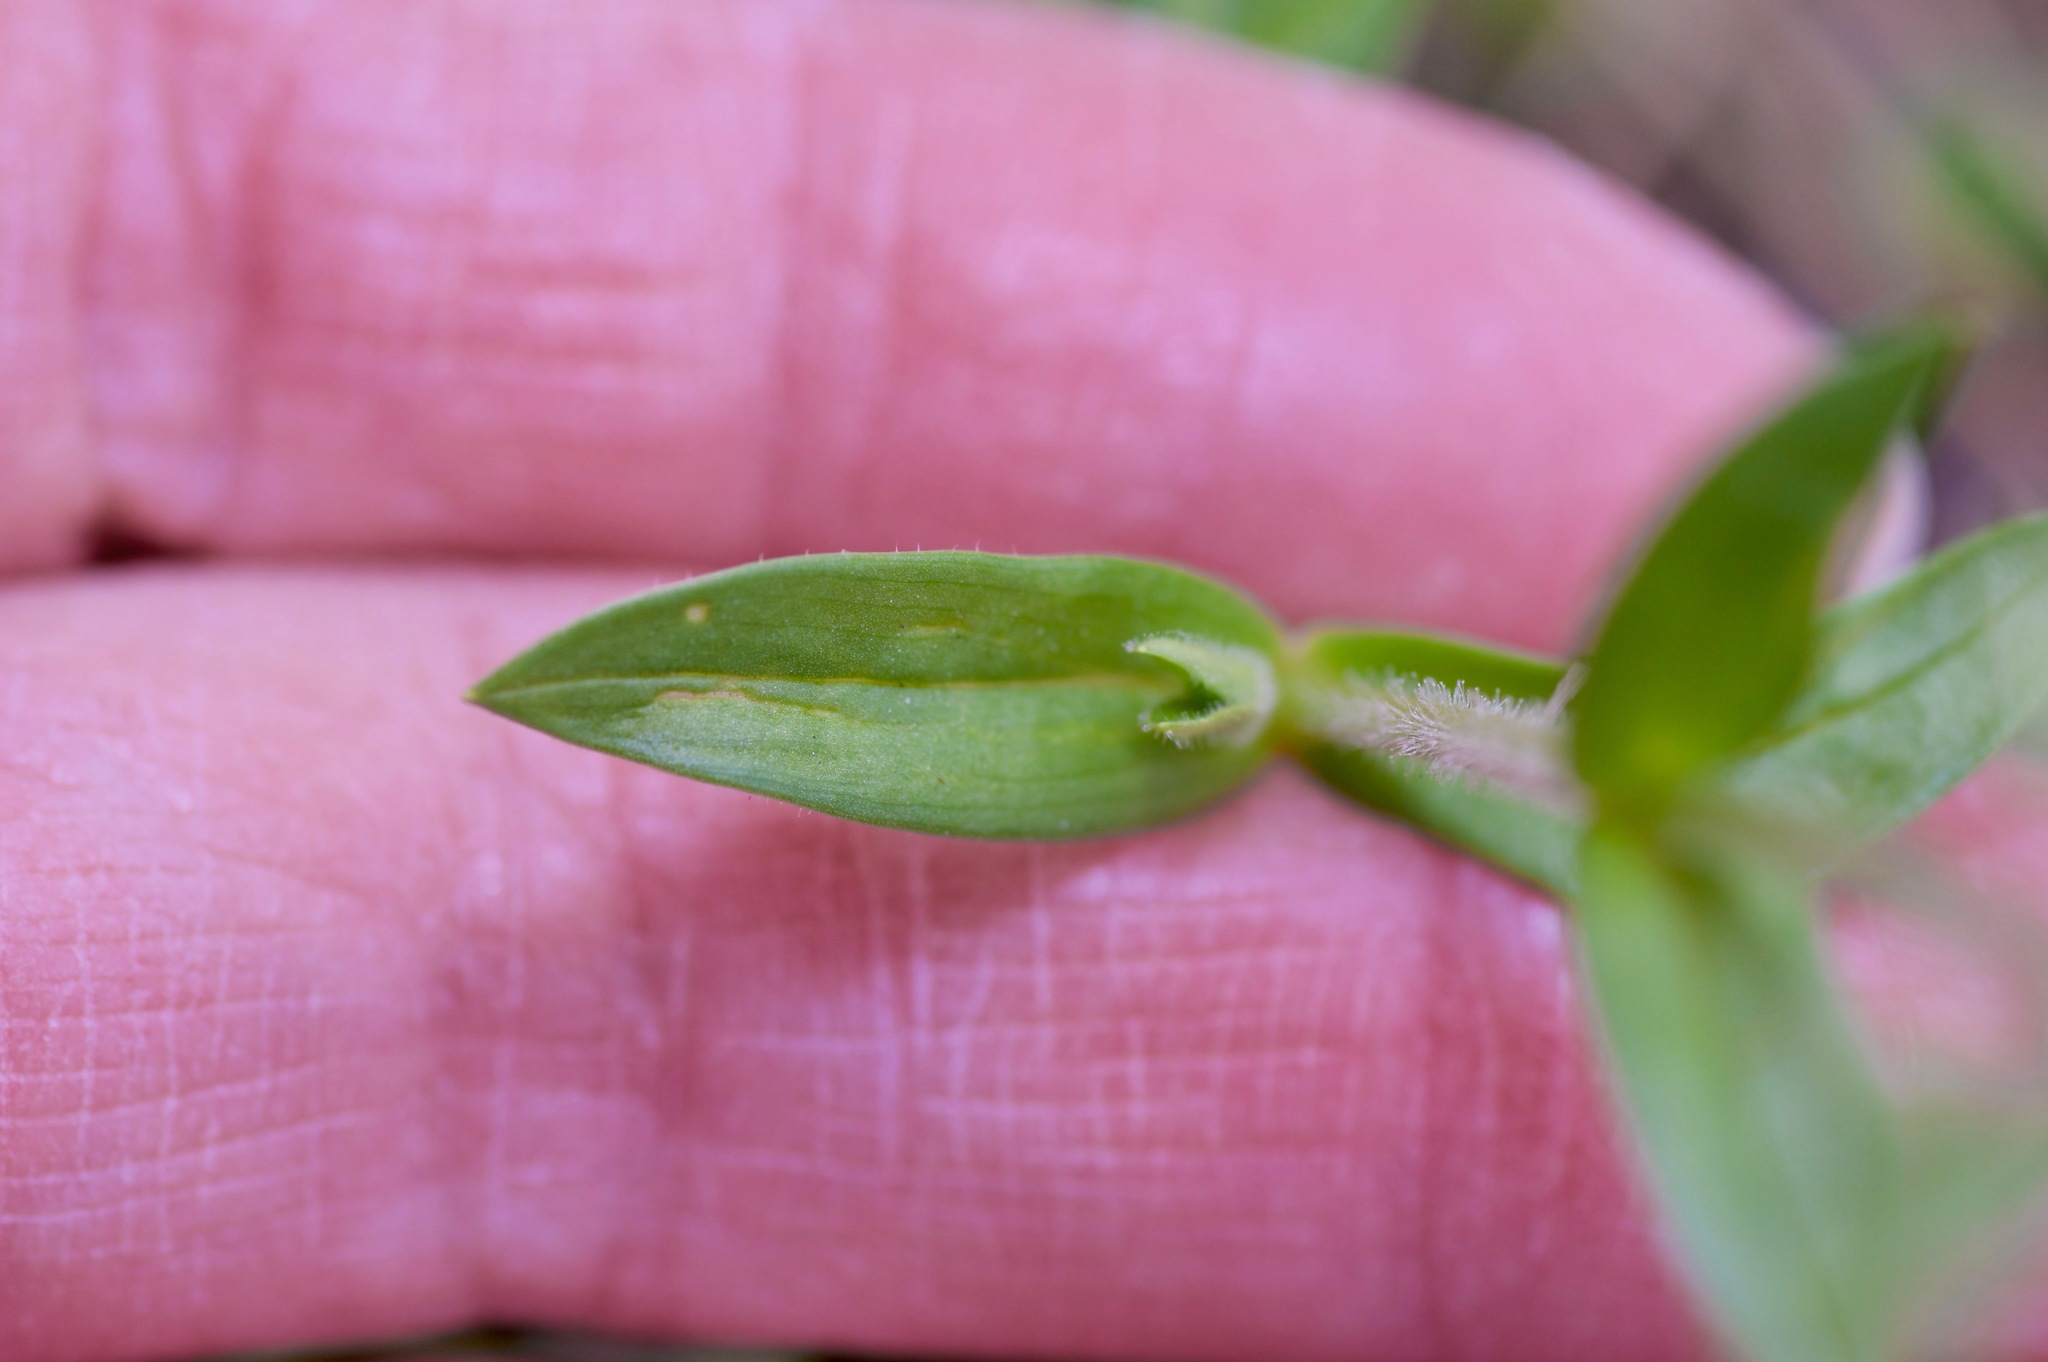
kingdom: Plantae
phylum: Tracheophyta
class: Magnoliopsida
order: Caryophyllales
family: Caryophyllaceae
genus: Cerastium
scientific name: Cerastium brachypodum
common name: Short-pedicelled nodding chickweed
